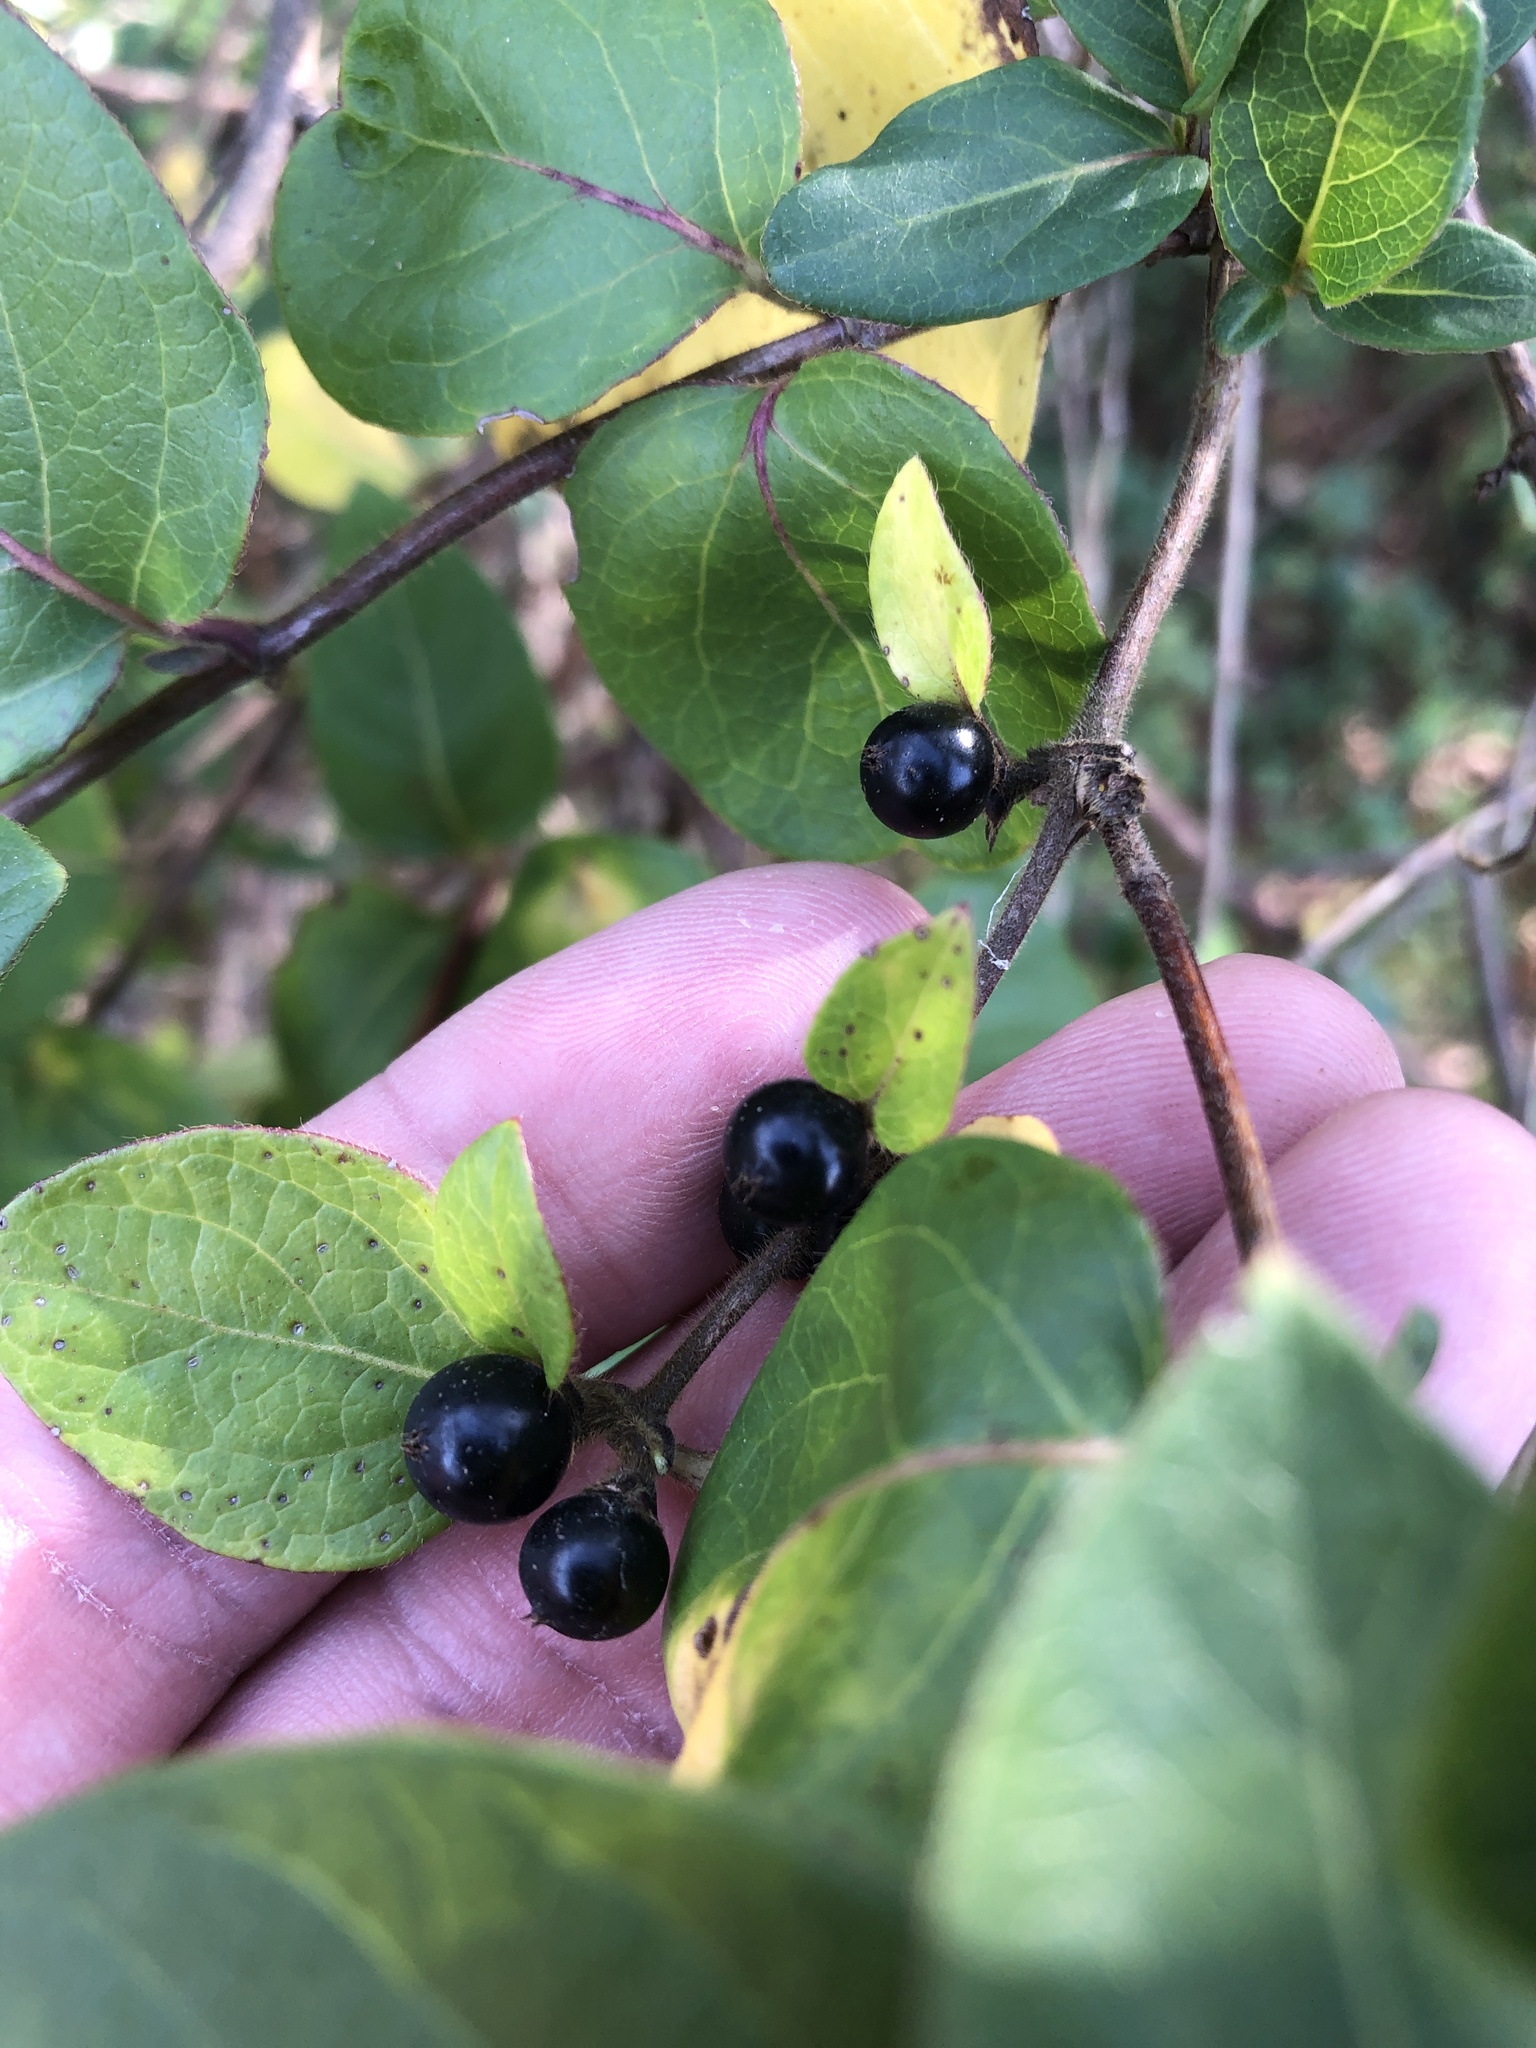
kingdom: Plantae
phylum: Tracheophyta
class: Magnoliopsida
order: Dipsacales
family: Caprifoliaceae
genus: Lonicera
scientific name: Lonicera japonica
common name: Japanese honeysuckle
